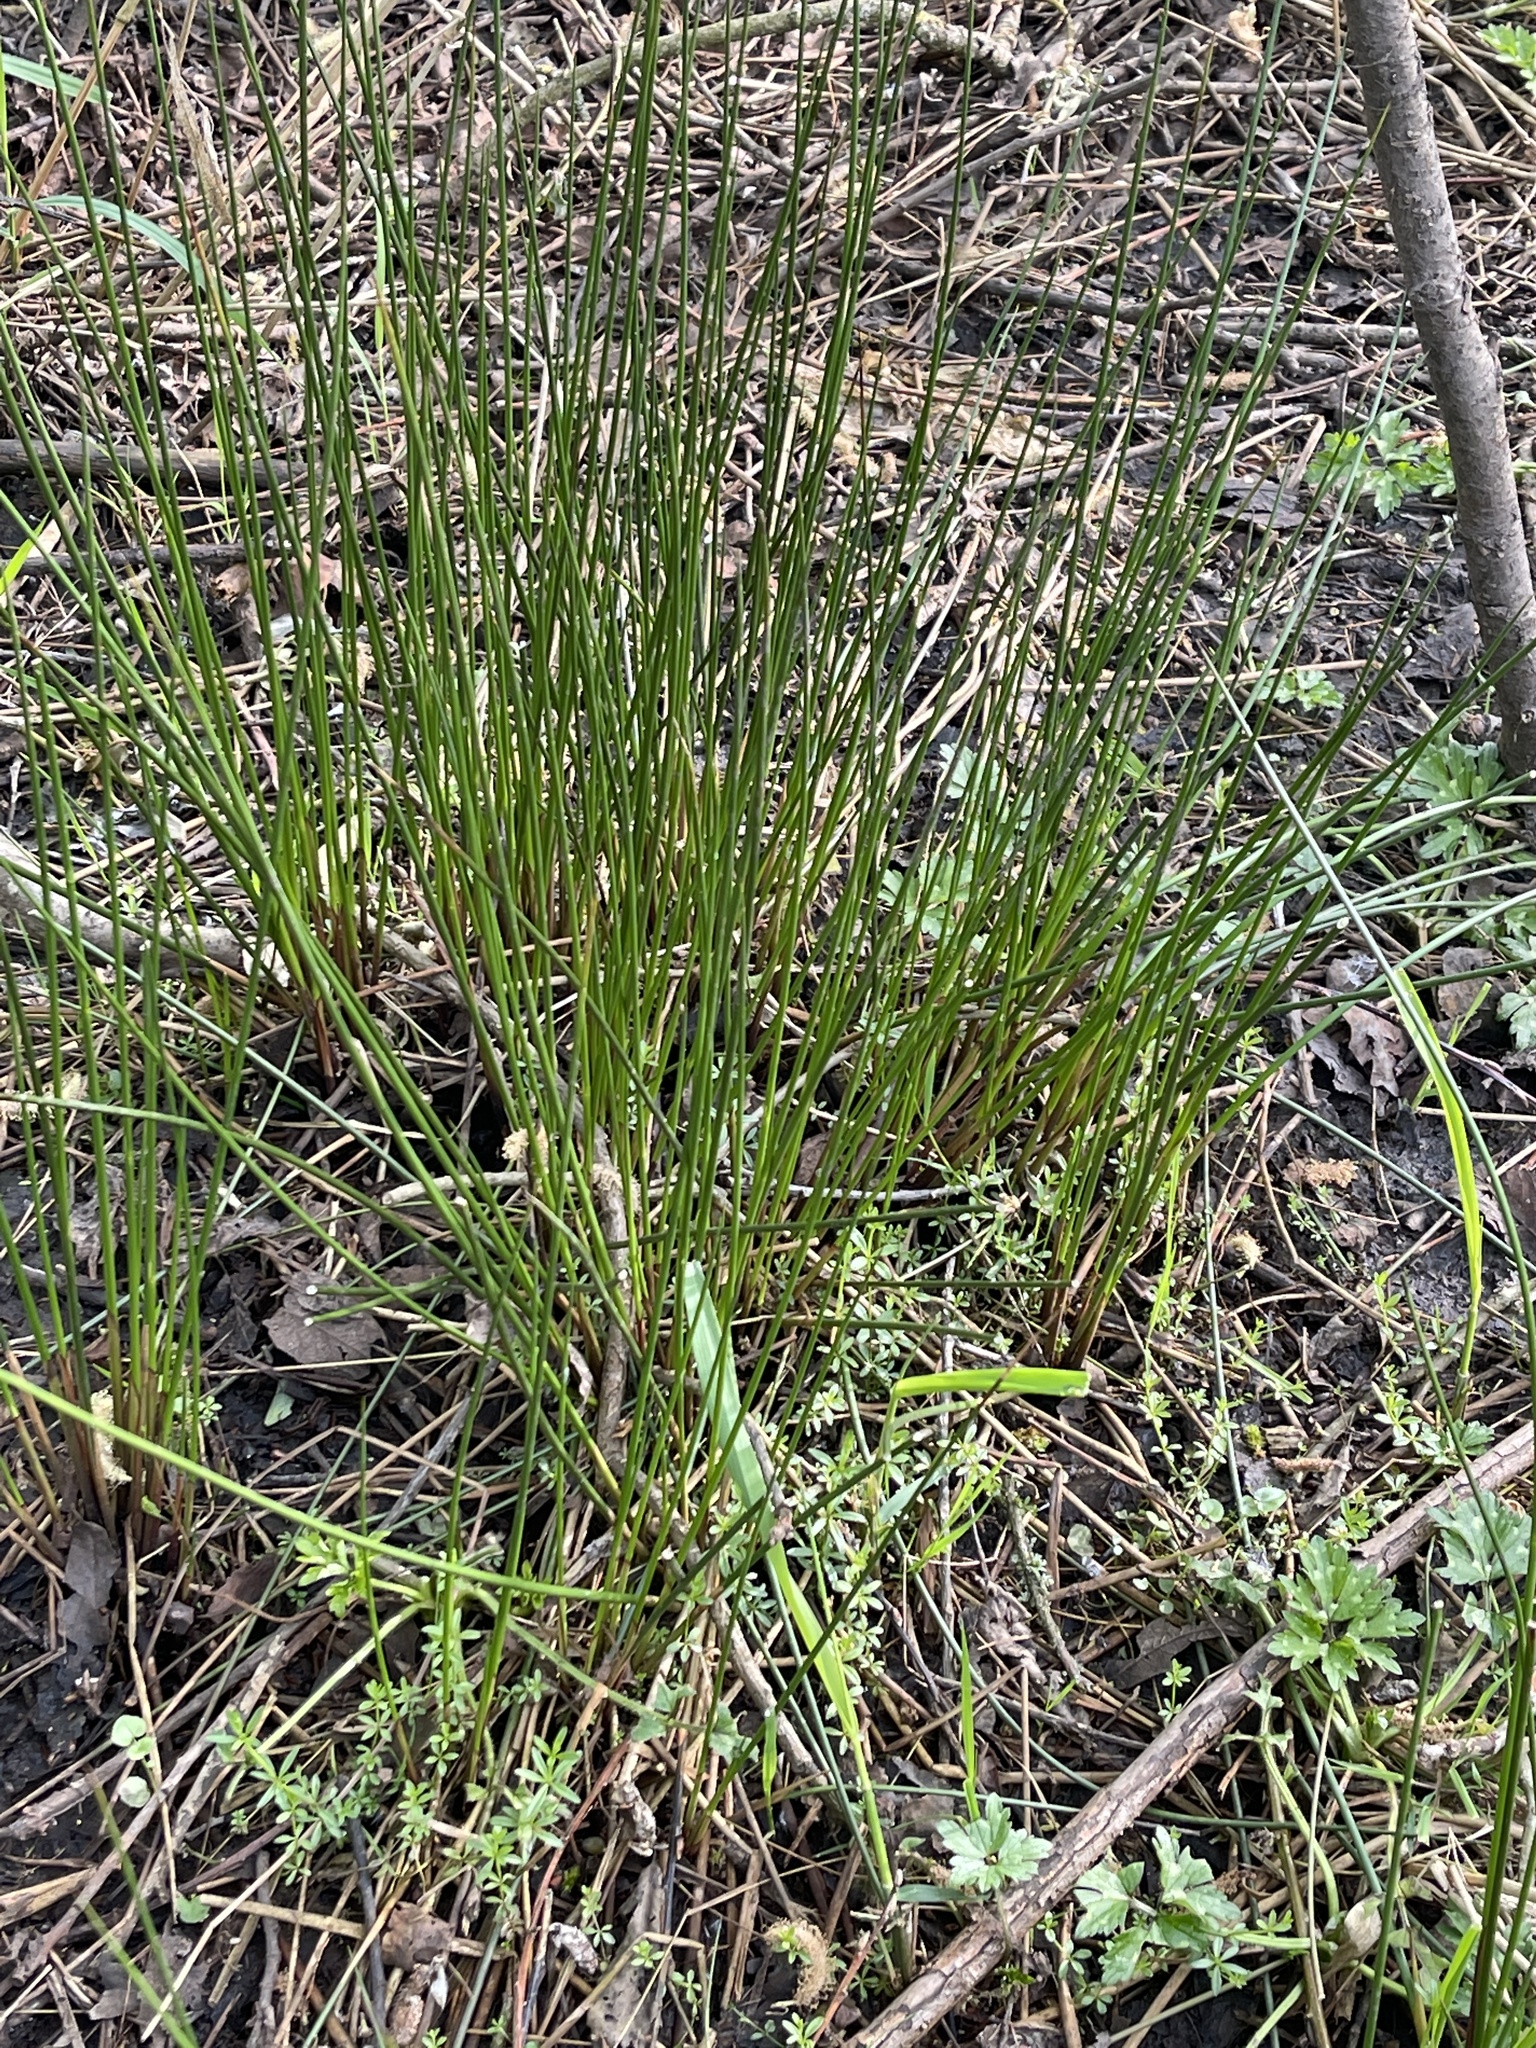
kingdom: Plantae
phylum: Tracheophyta
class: Liliopsida
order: Poales
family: Juncaceae
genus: Juncus
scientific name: Juncus effusus
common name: Soft rush
